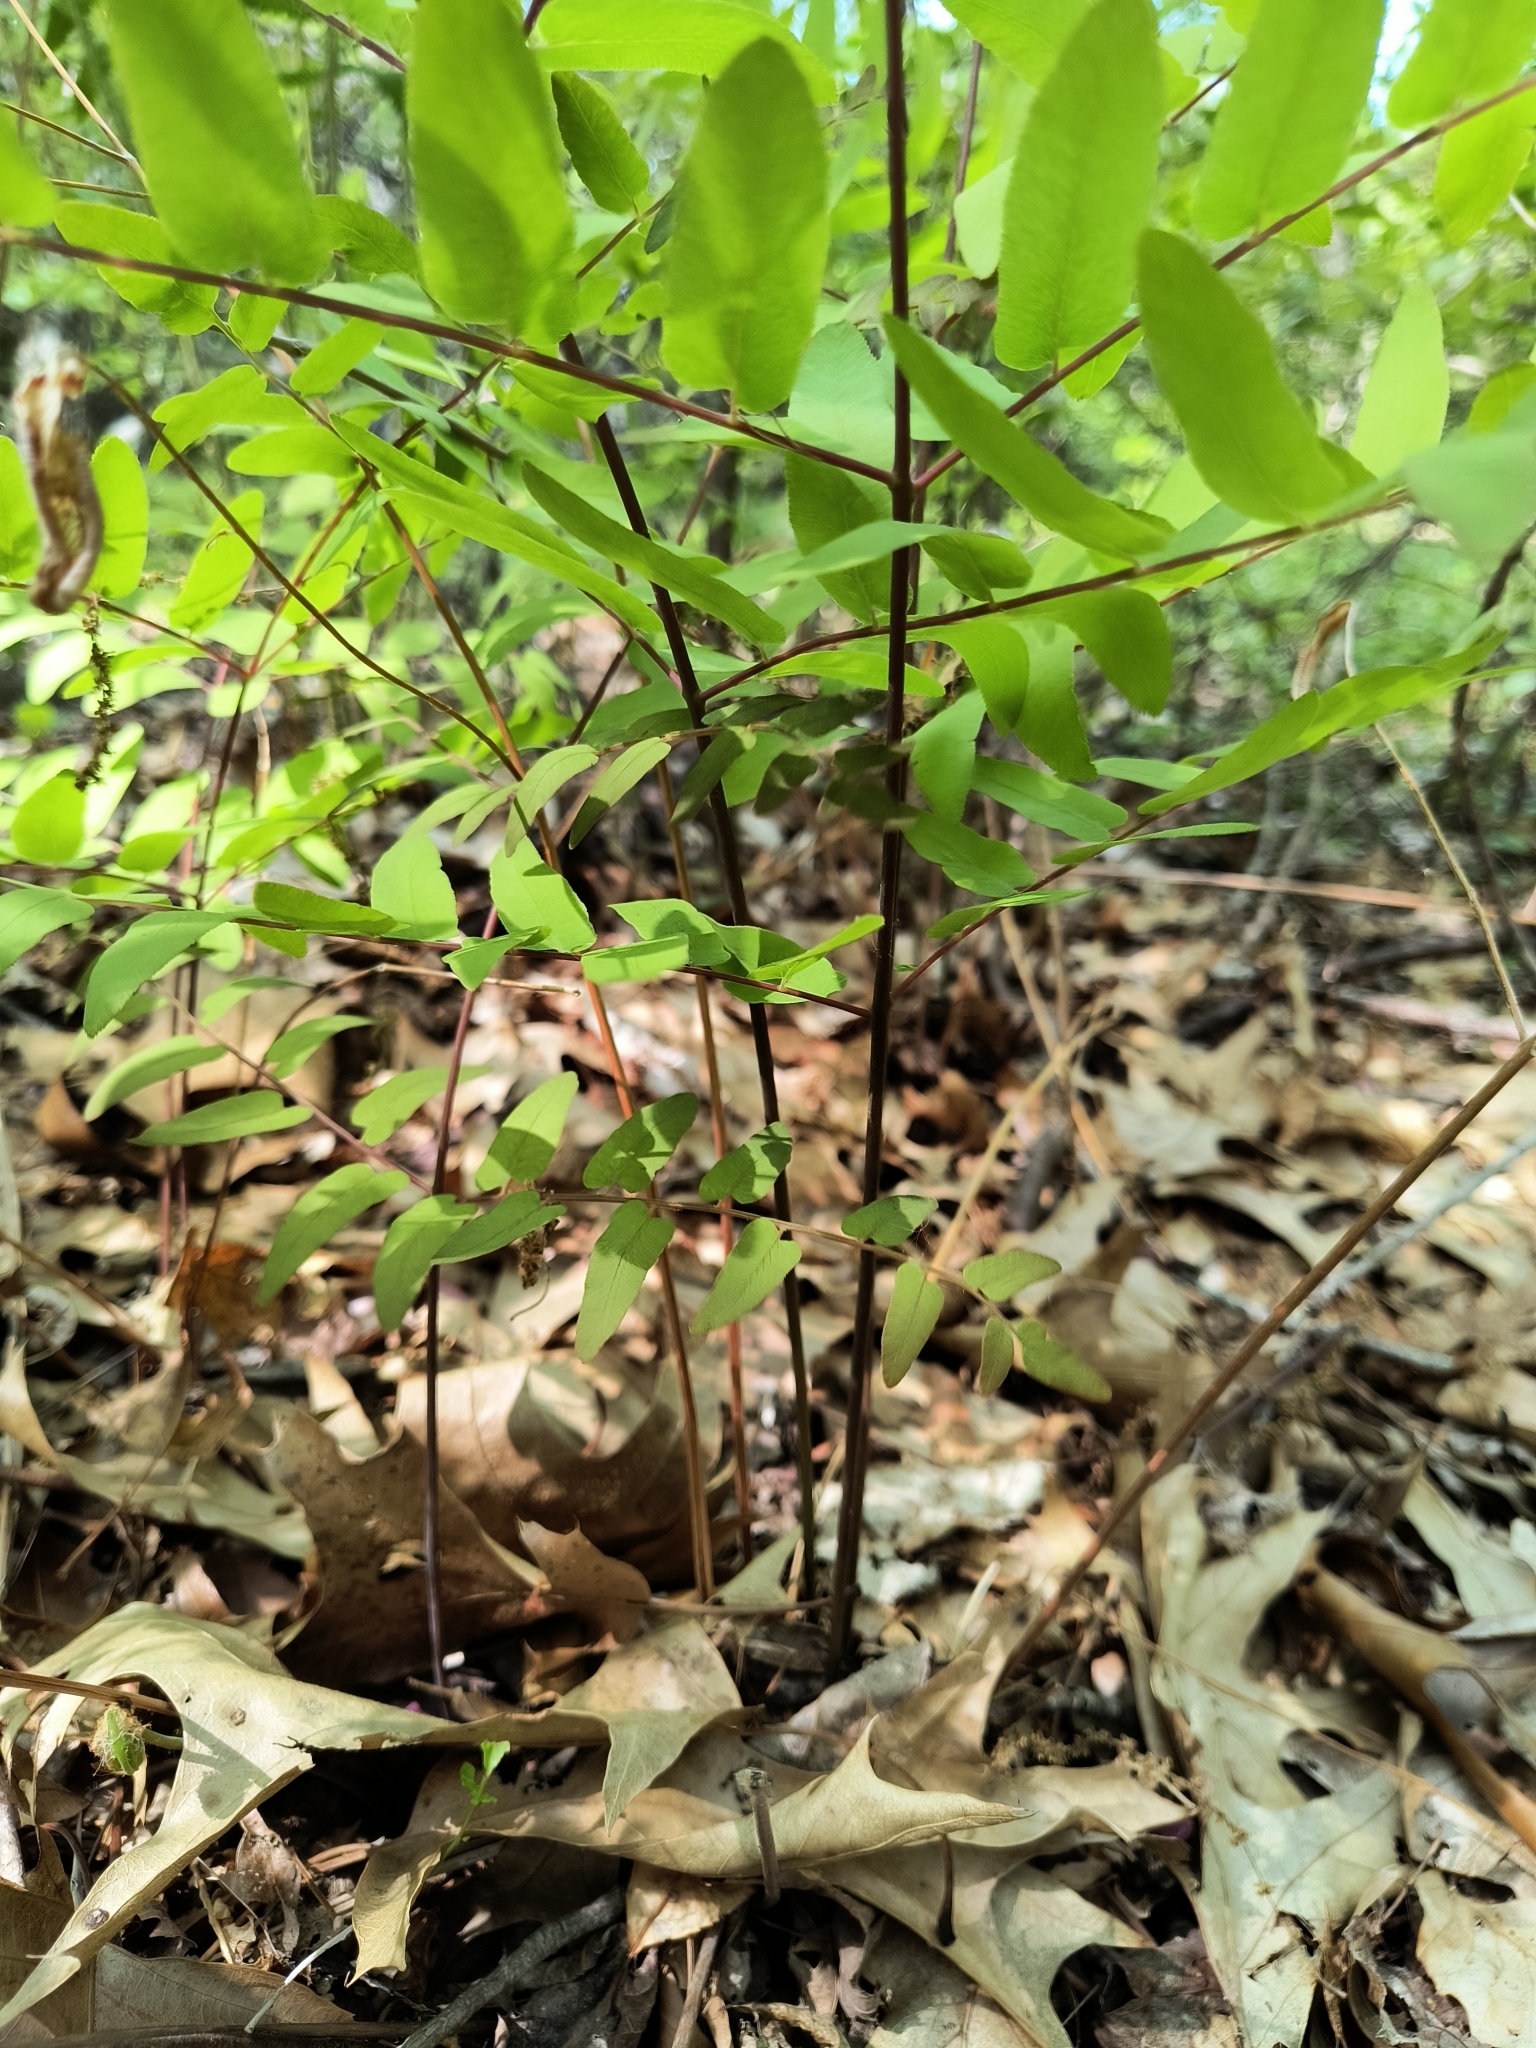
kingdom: Plantae
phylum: Tracheophyta
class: Polypodiopsida
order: Osmundales
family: Osmundaceae
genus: Osmunda
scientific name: Osmunda spectabilis
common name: American royal fern
